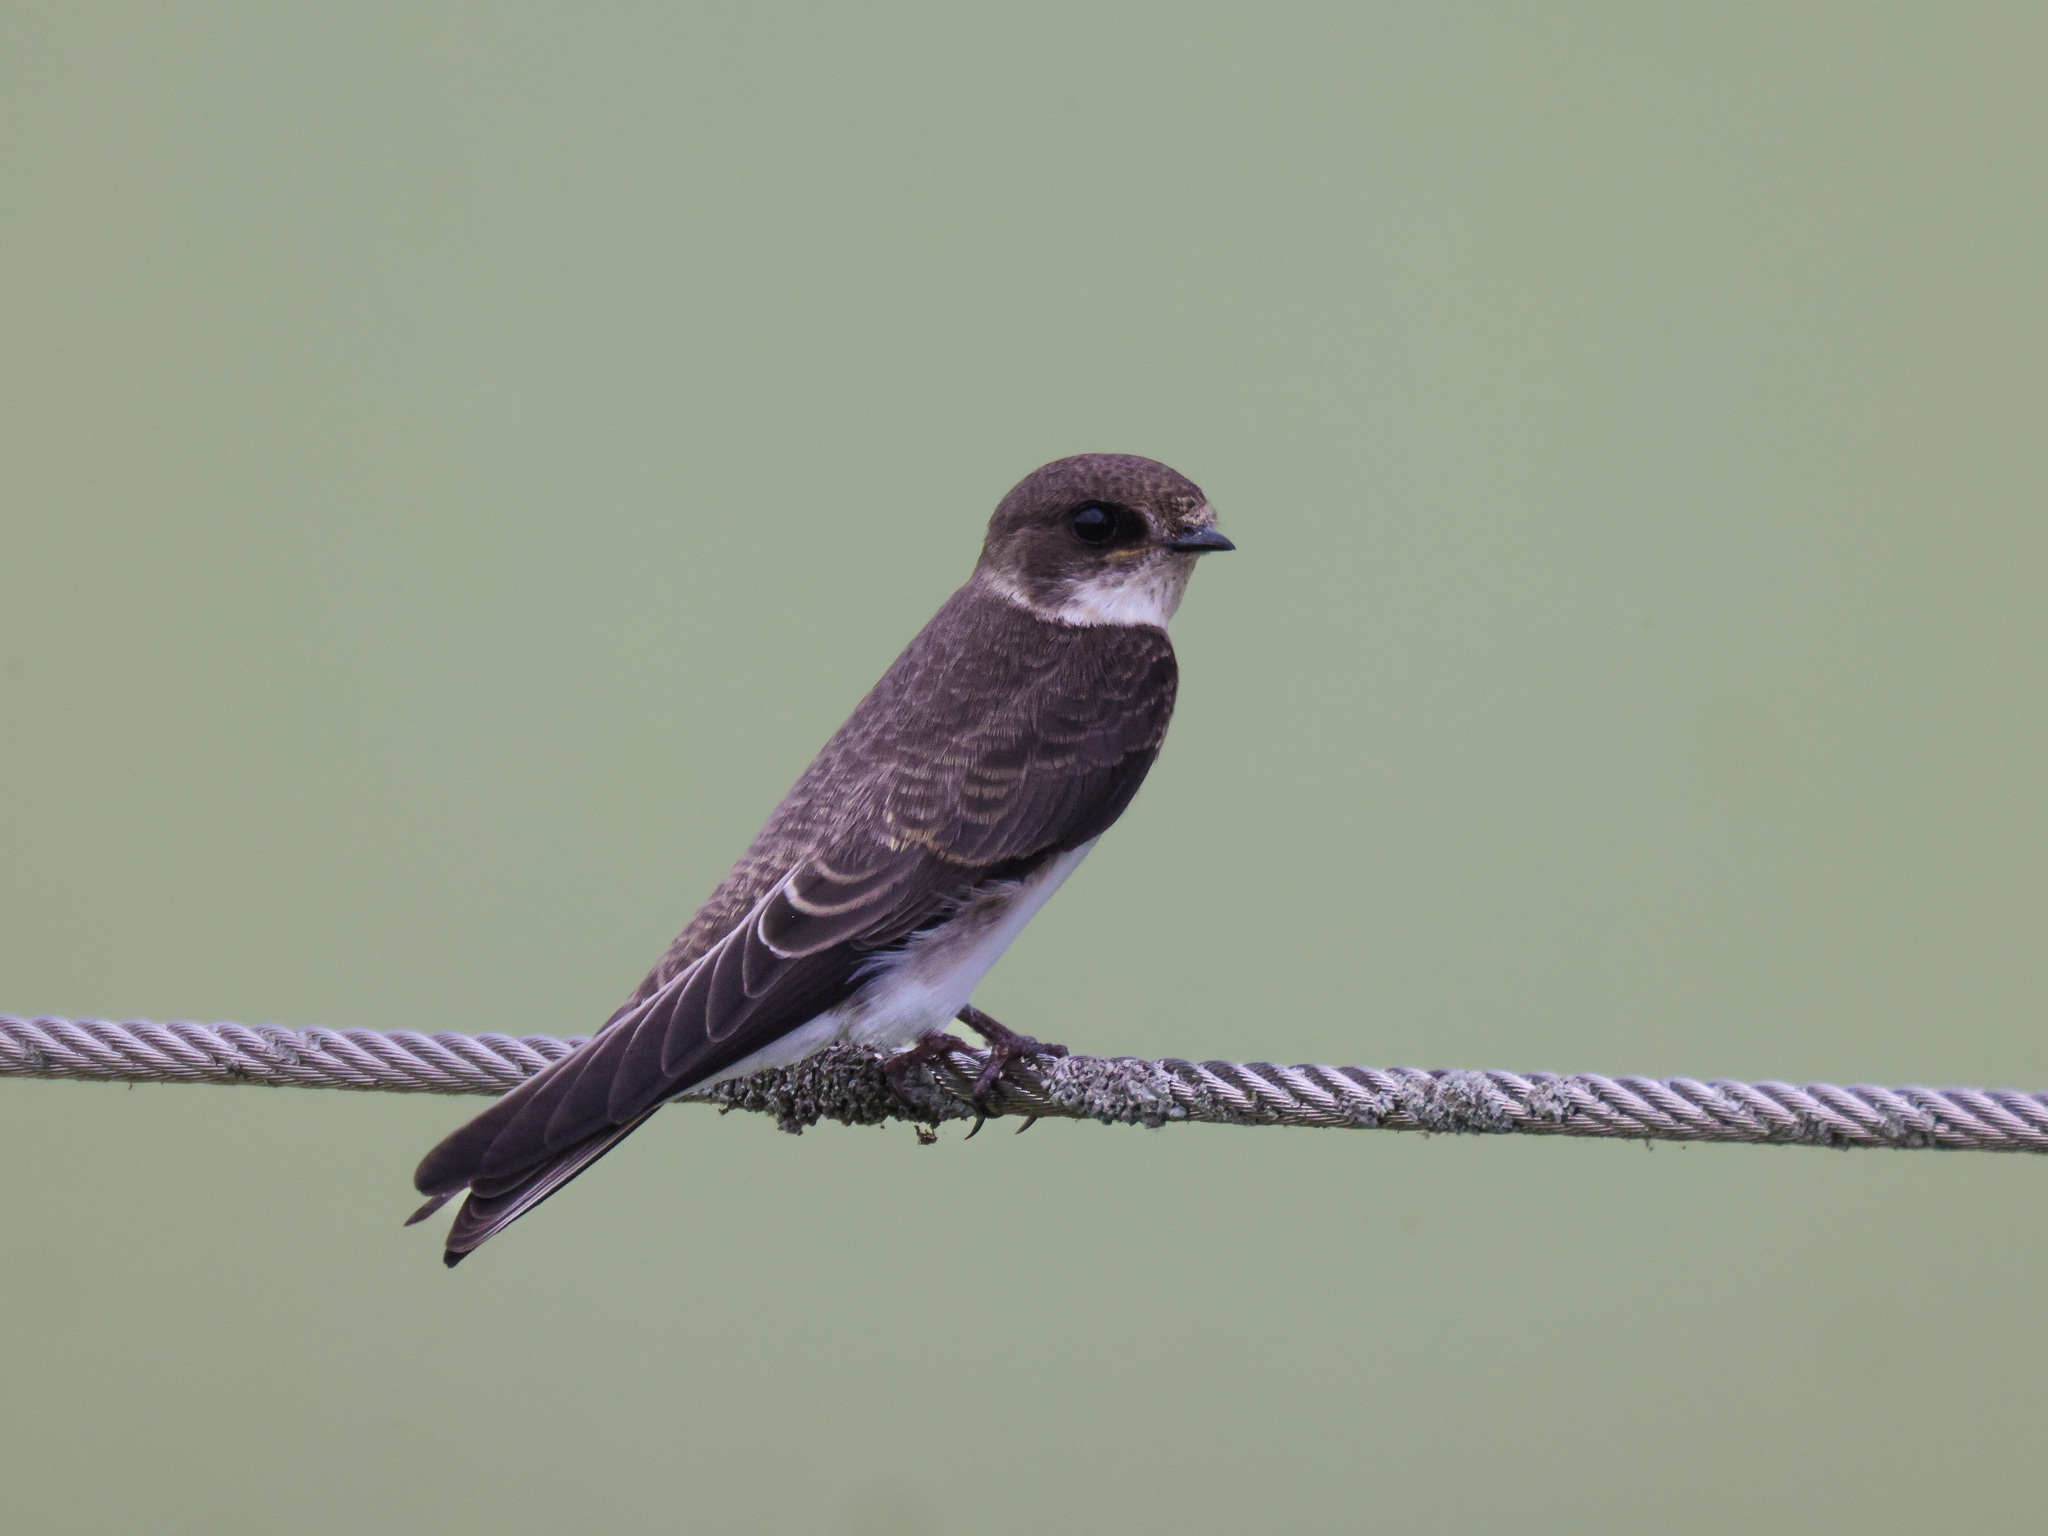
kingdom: Animalia
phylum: Chordata
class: Aves
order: Passeriformes
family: Hirundinidae
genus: Riparia
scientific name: Riparia riparia
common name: Sand martin
